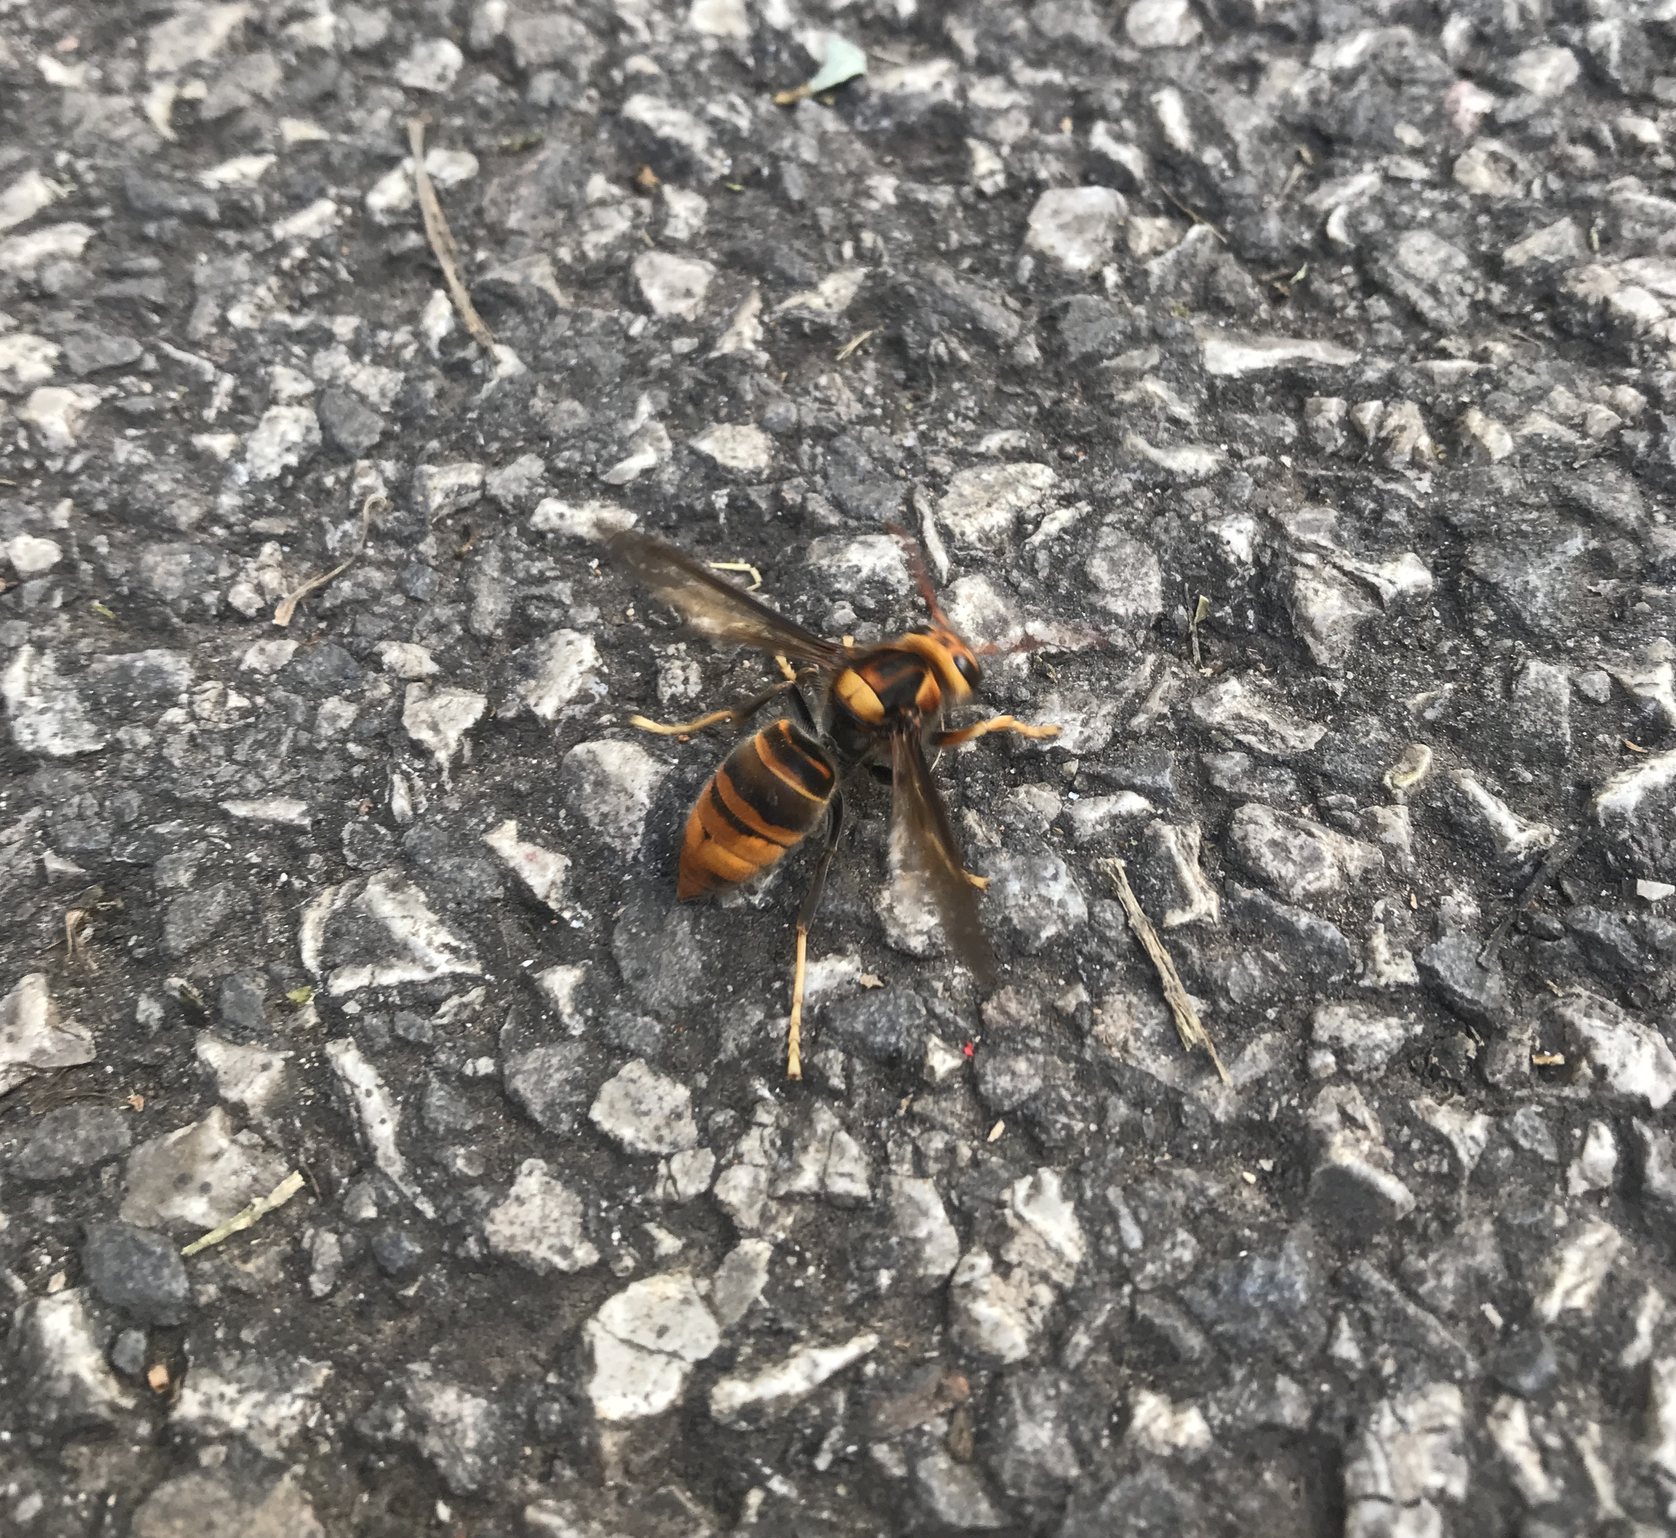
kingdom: Animalia
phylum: Arthropoda
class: Insecta
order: Hymenoptera
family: Vespidae
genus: Vespa
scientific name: Vespa velutina
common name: Asian hornet
